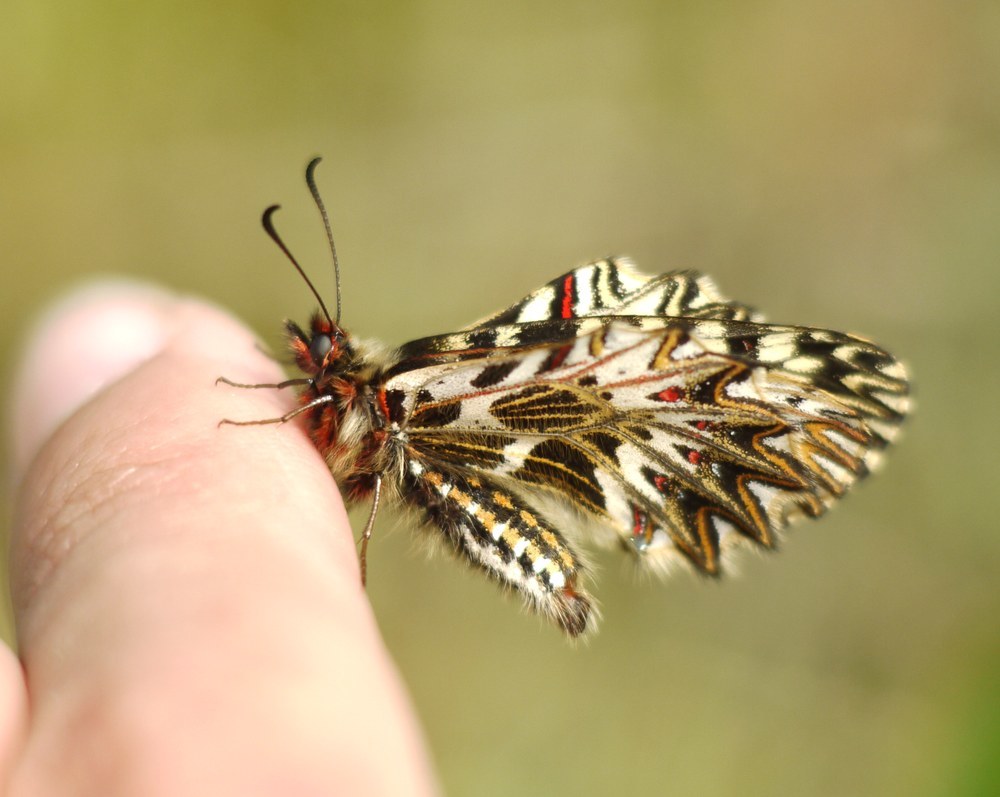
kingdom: Animalia
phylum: Arthropoda
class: Insecta
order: Lepidoptera
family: Papilionidae
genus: Zerynthia
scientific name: Zerynthia polyxena
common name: Southern festoon
